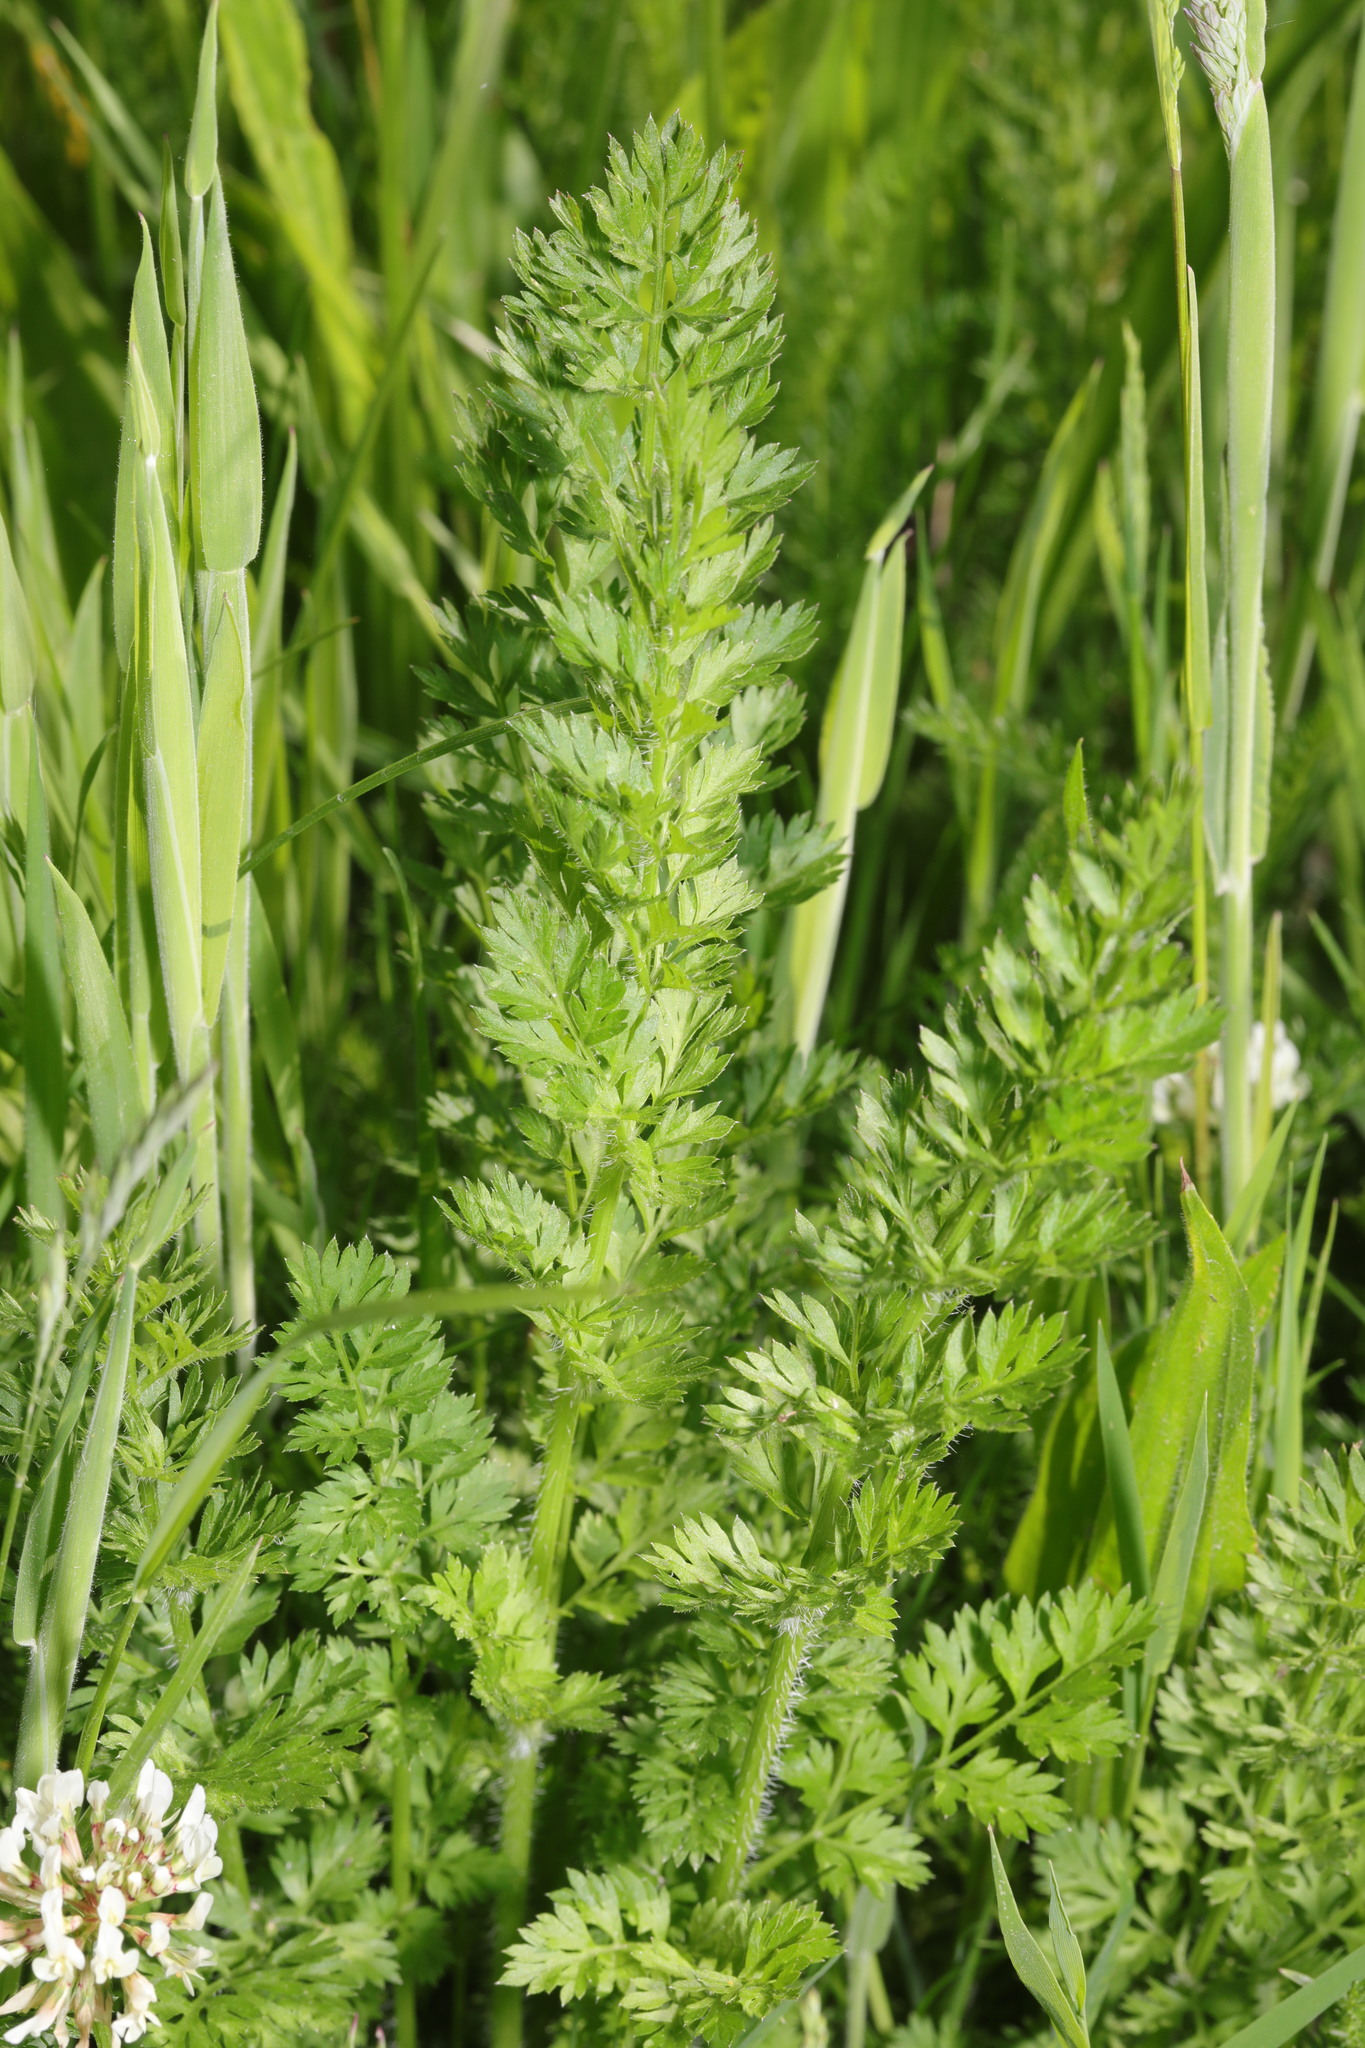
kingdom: Plantae
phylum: Tracheophyta
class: Magnoliopsida
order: Apiales
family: Apiaceae
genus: Daucus
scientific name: Daucus carota
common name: Wild carrot
